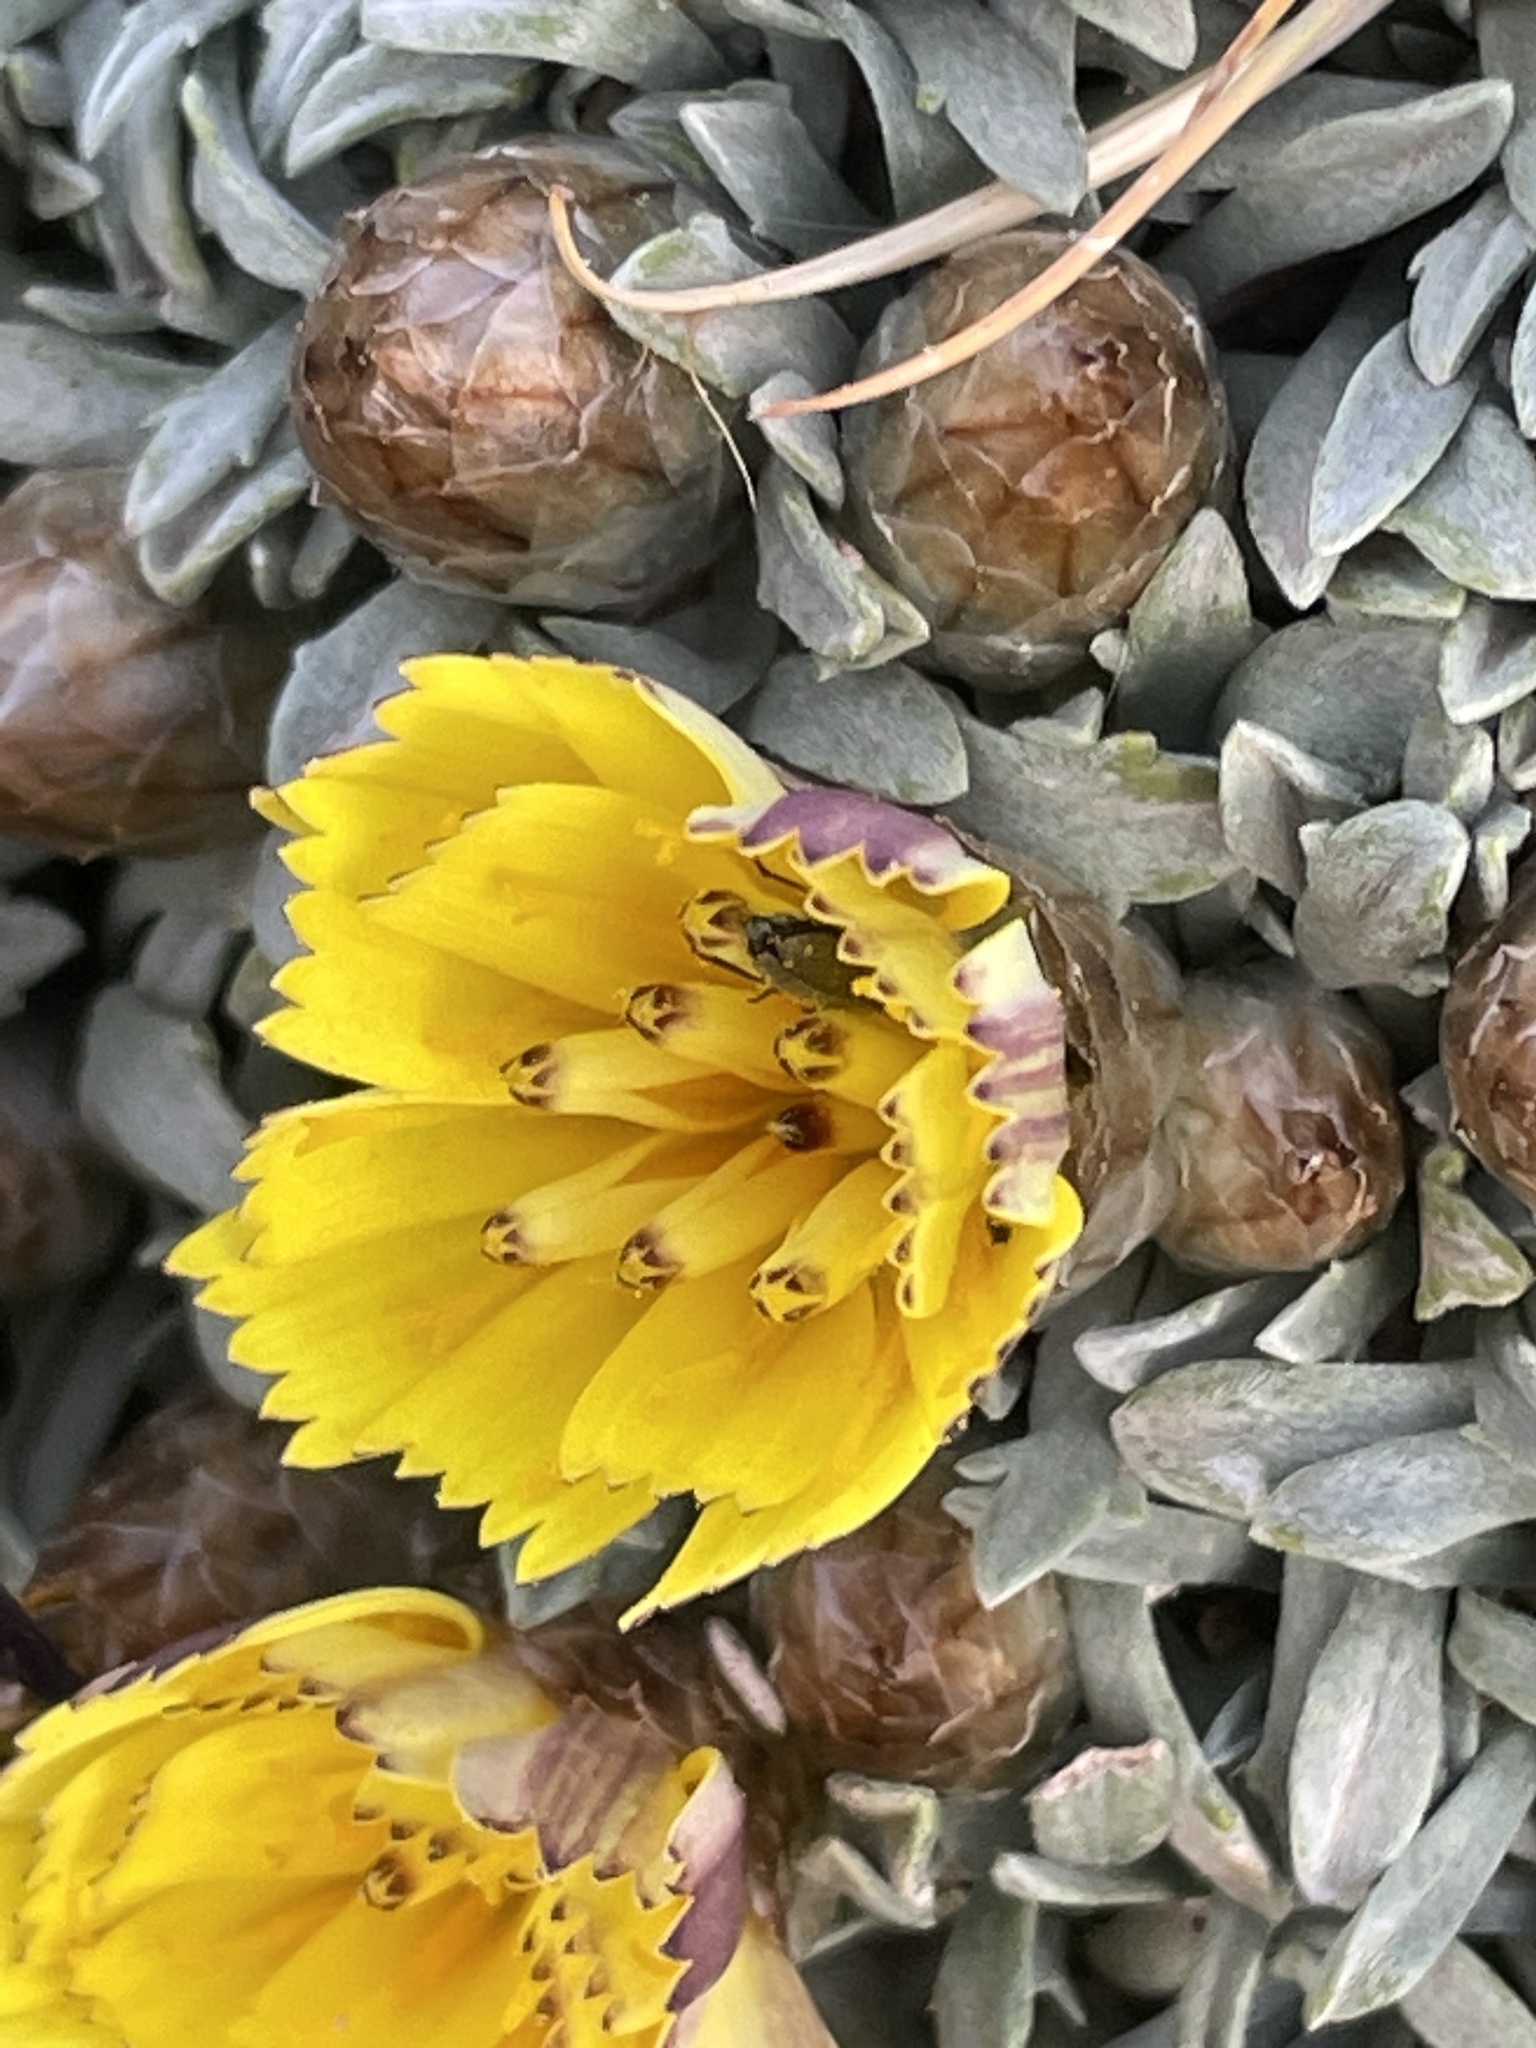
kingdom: Plantae
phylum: Tracheophyta
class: Magnoliopsida
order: Asterales
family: Asteraceae
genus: Catananche
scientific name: Catananche caespitosa
